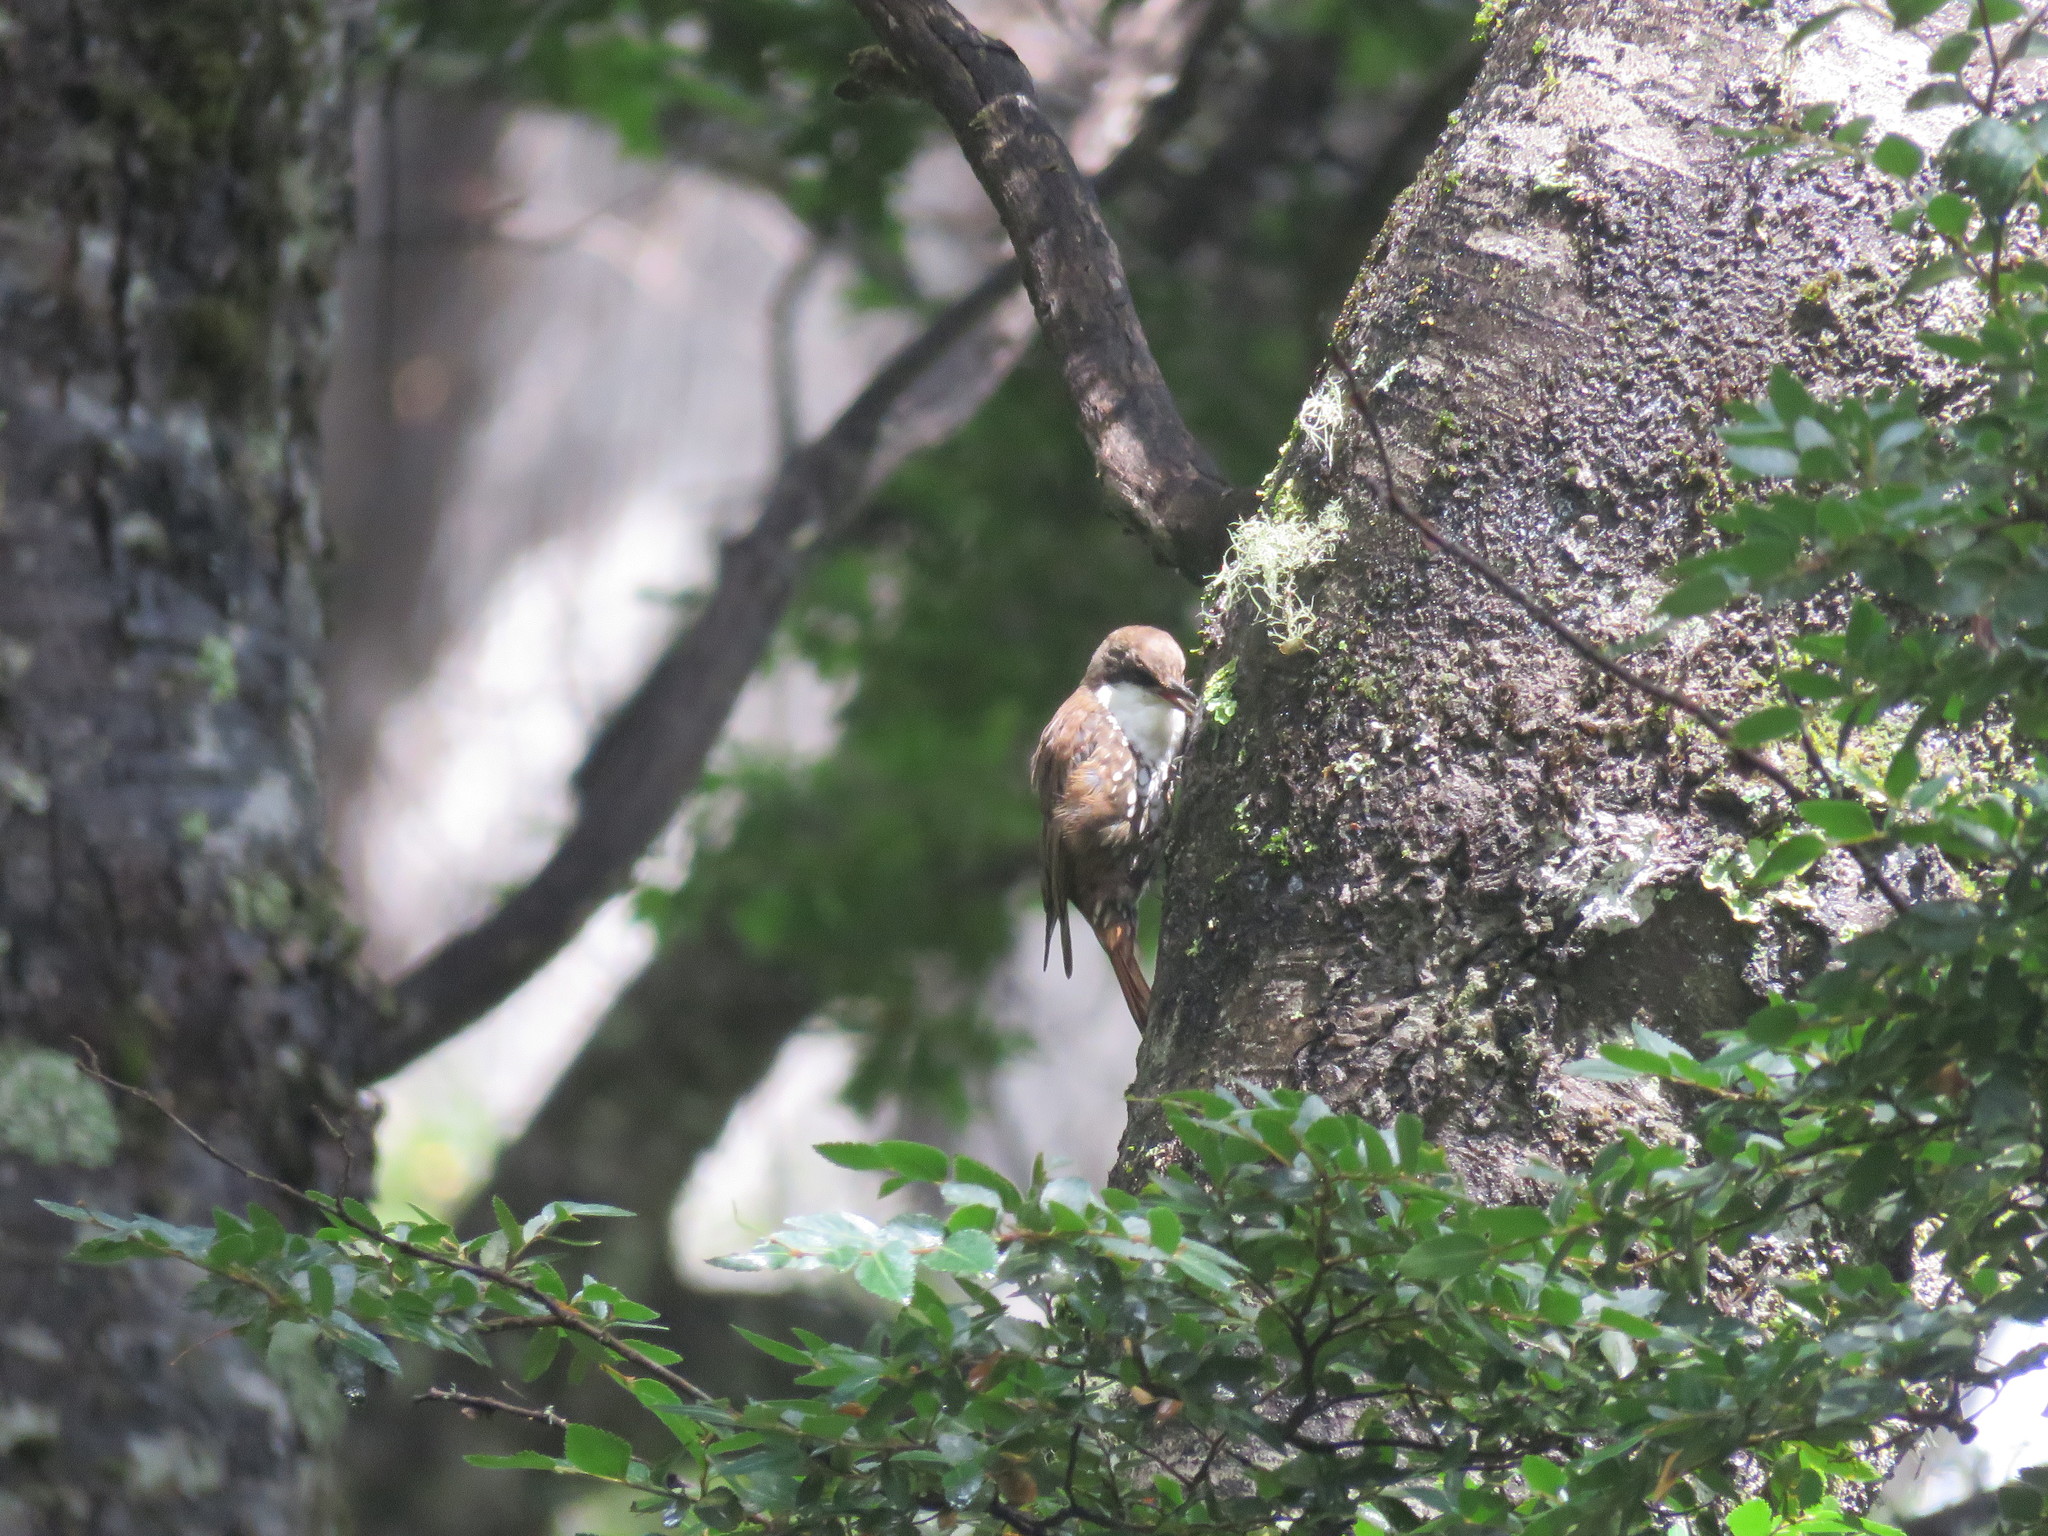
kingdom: Animalia
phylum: Chordata
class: Aves
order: Passeriformes
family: Furnariidae
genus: Pygarrhichas
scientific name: Pygarrhichas albogularis
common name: White-throated treerunner
